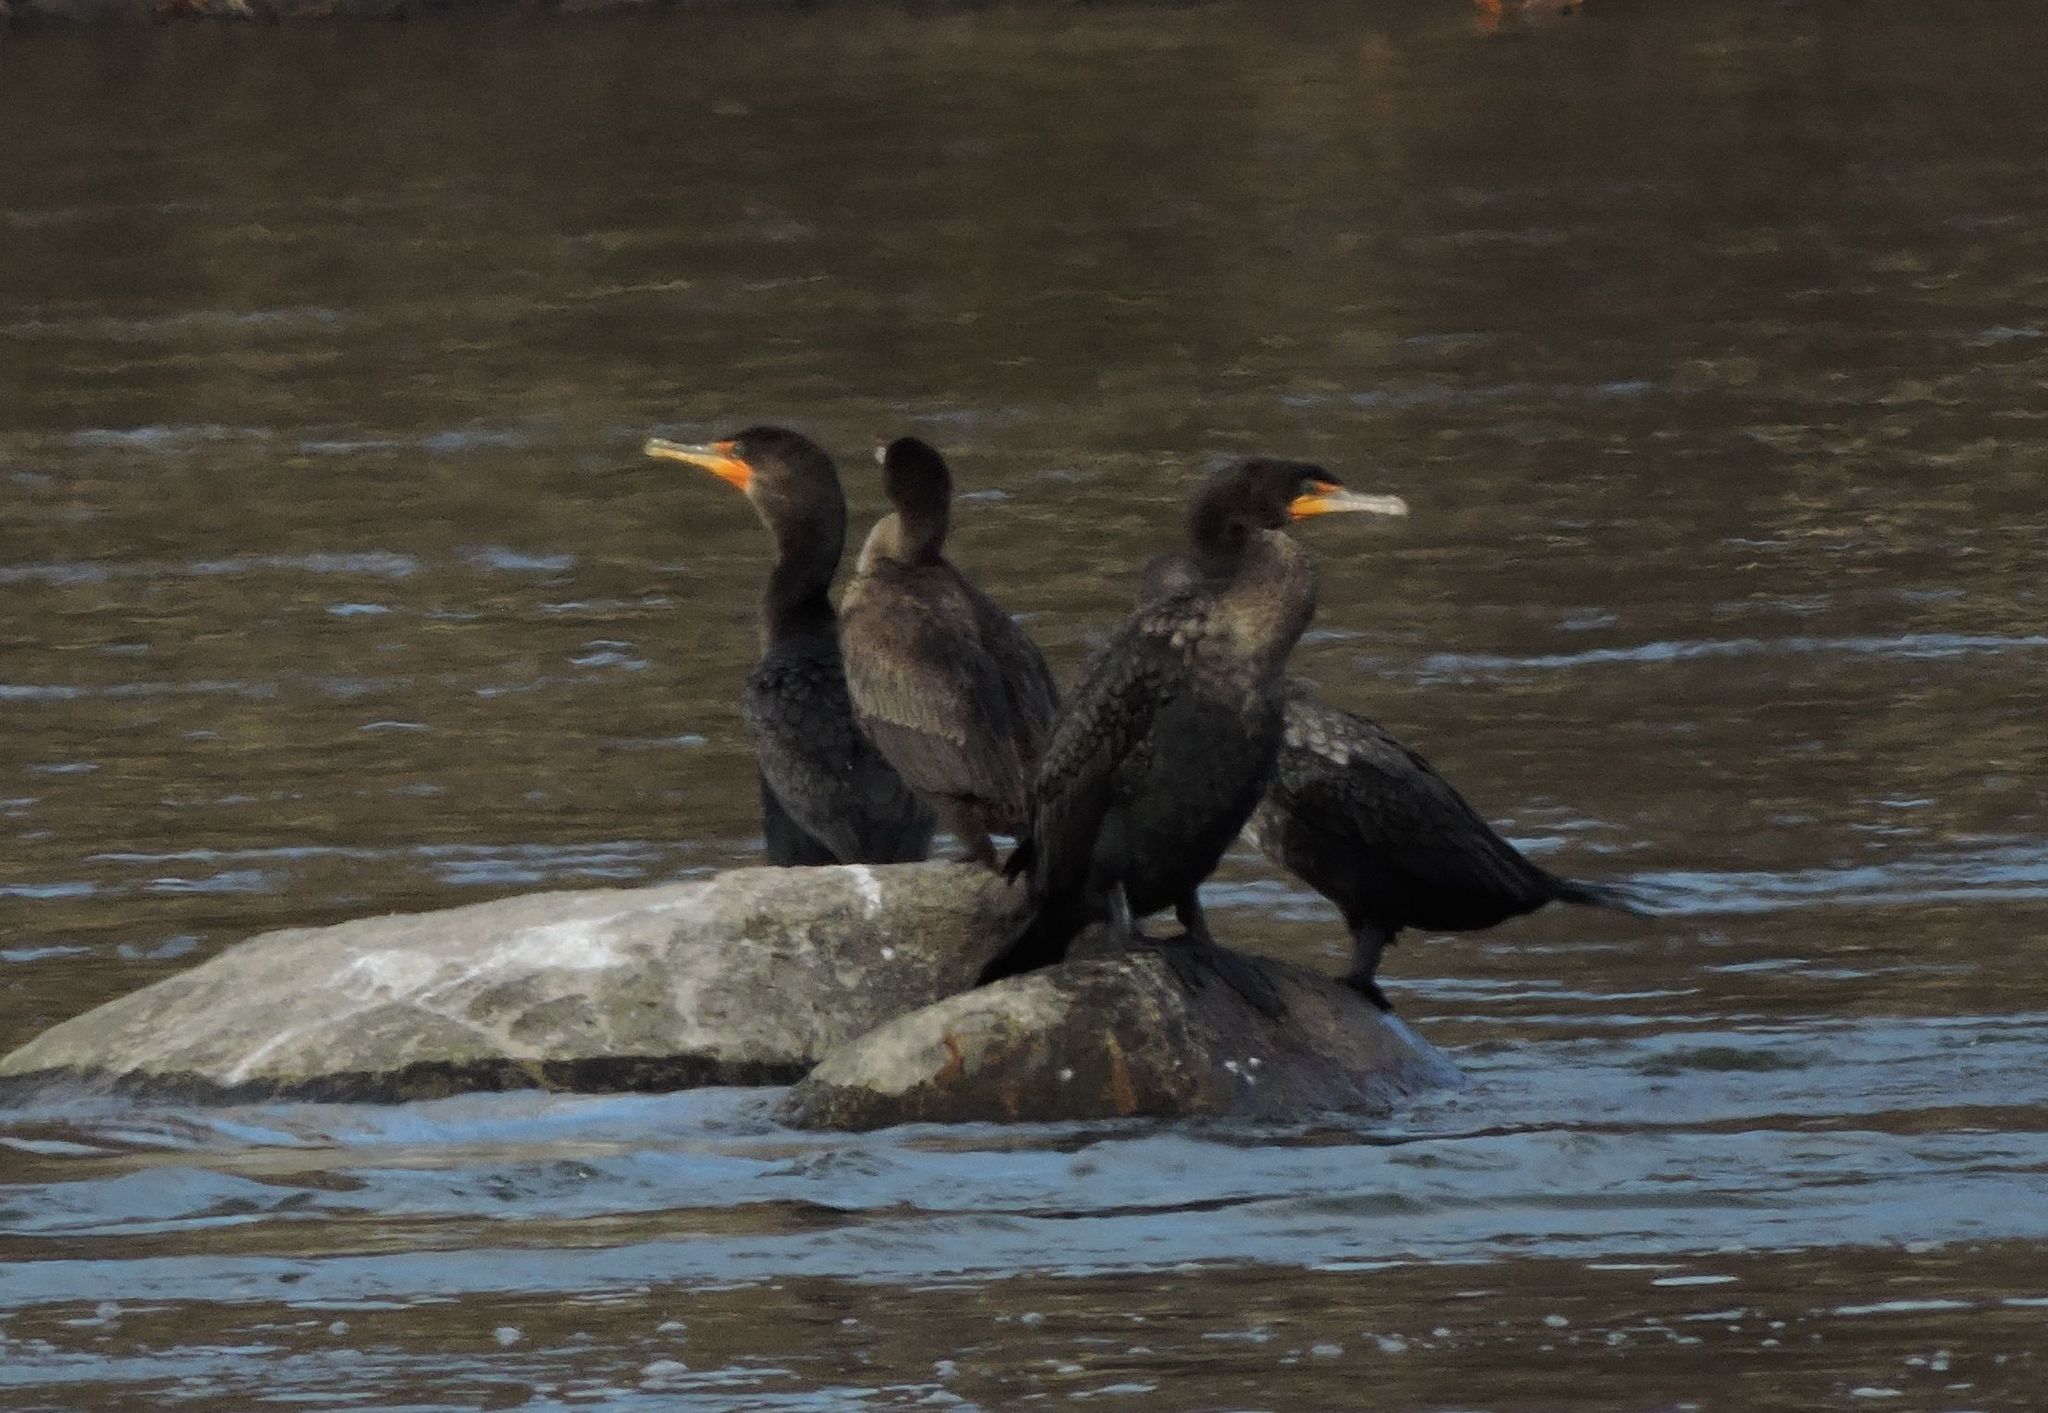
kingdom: Animalia
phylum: Chordata
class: Aves
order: Suliformes
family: Phalacrocoracidae
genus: Phalacrocorax
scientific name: Phalacrocorax auritus
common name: Double-crested cormorant
